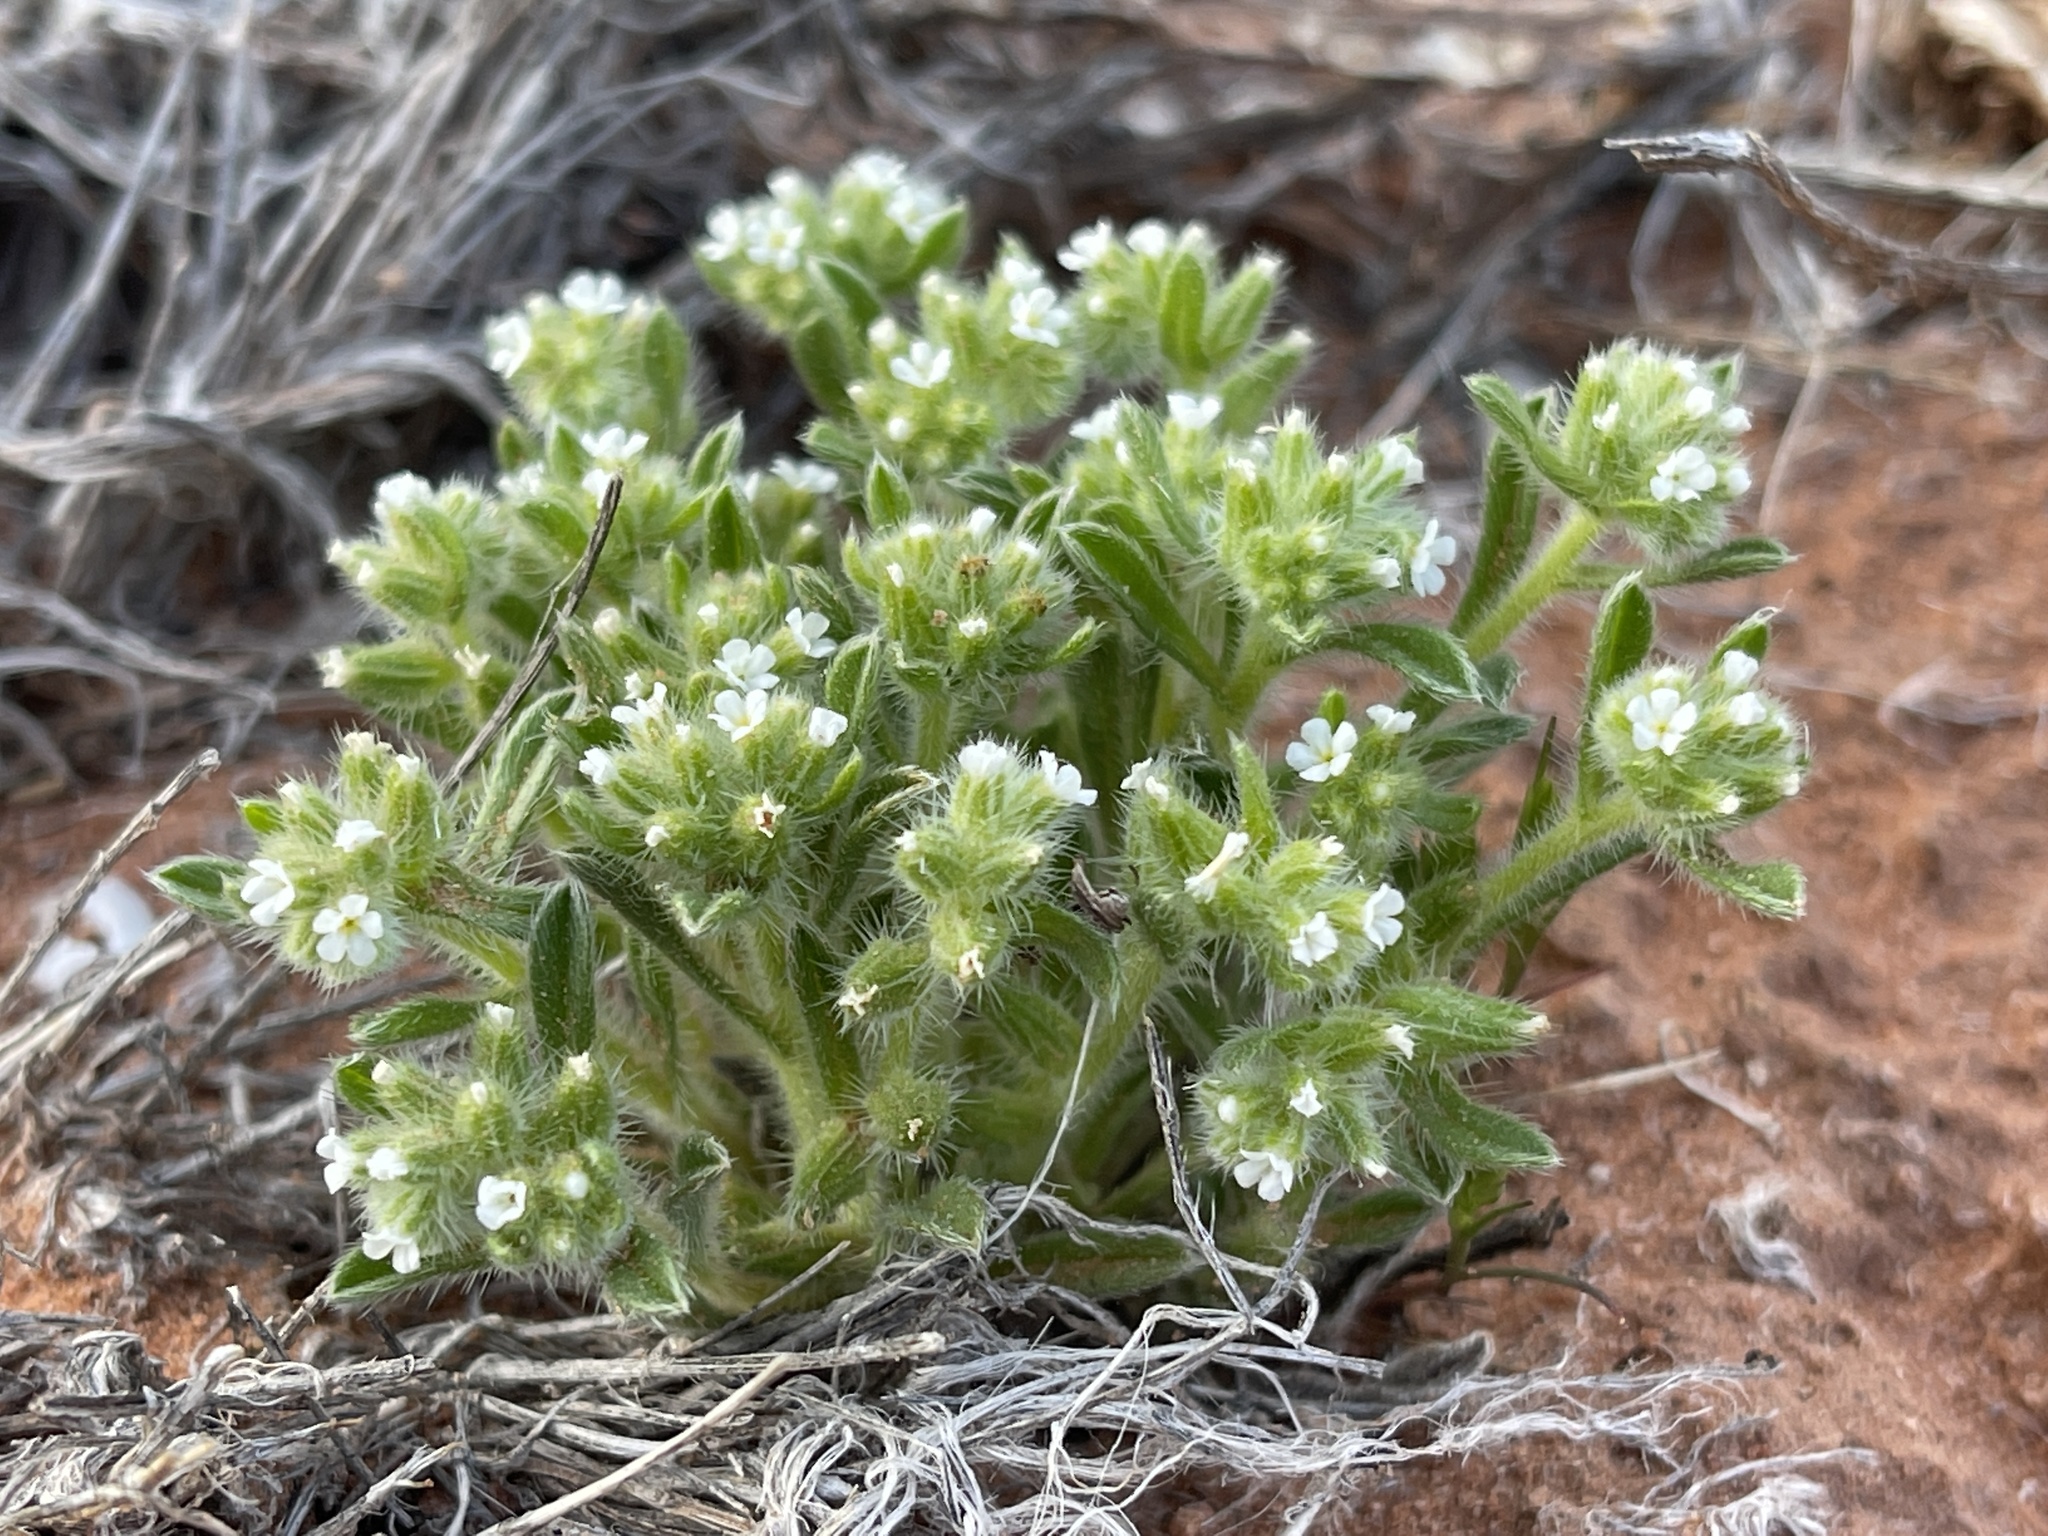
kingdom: Plantae
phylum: Tracheophyta
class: Magnoliopsida
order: Boraginales
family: Boraginaceae
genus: Cryptantha
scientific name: Cryptantha crassisepala
